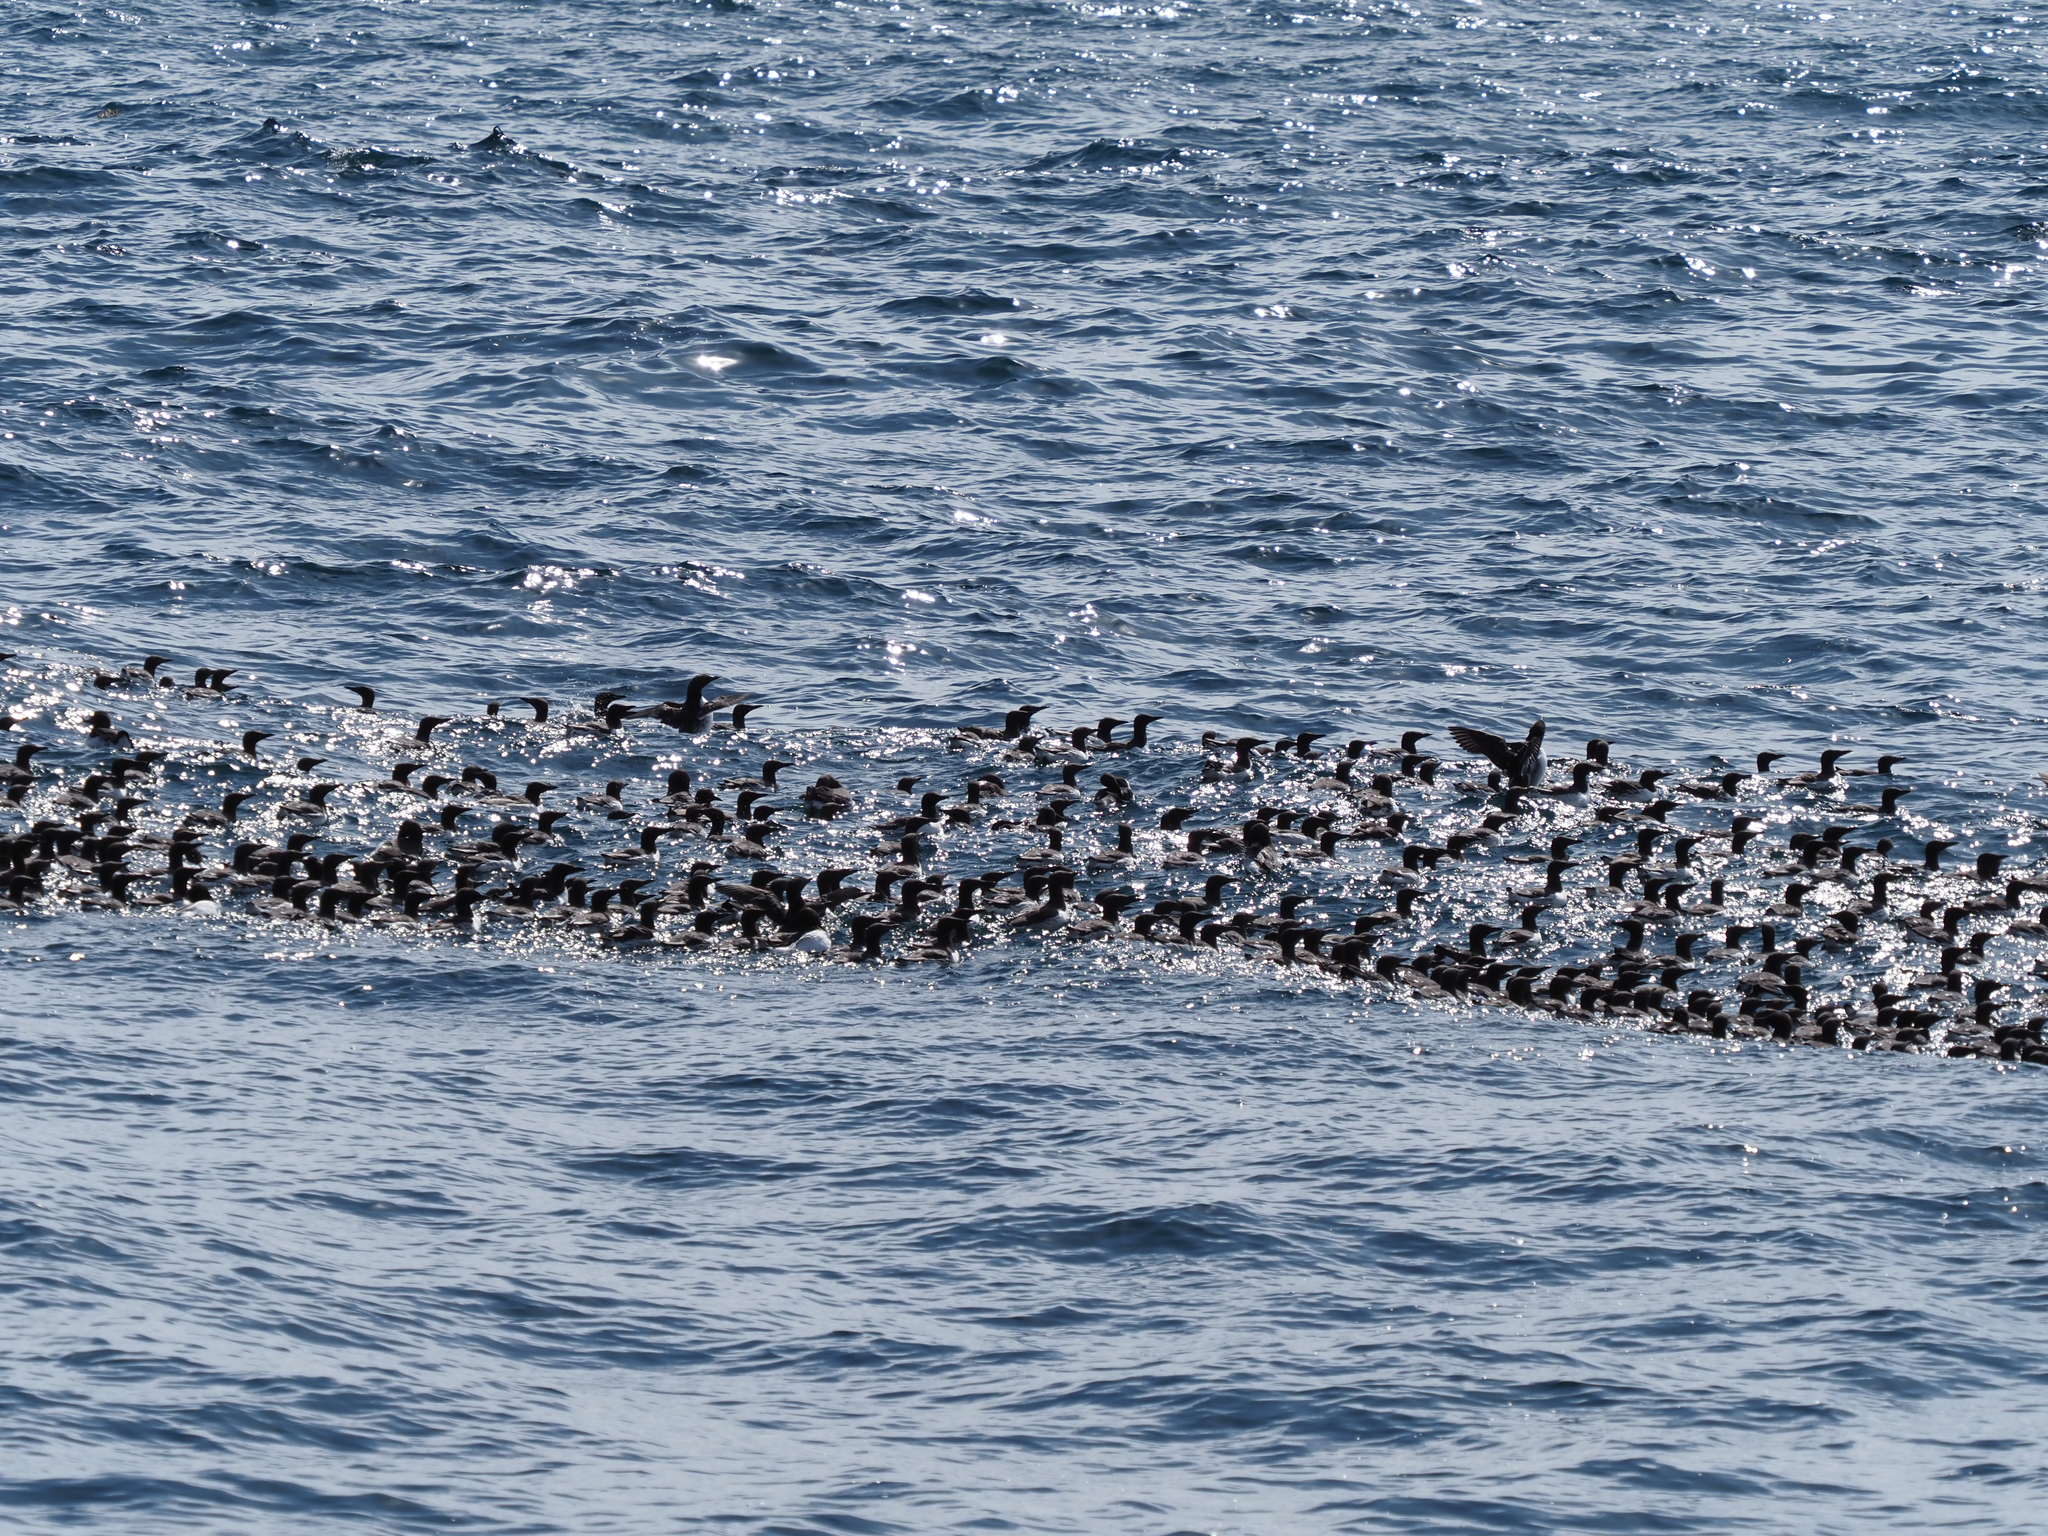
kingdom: Animalia
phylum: Chordata
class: Aves
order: Charadriiformes
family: Alcidae
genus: Uria
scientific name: Uria aalge
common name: Common murre
